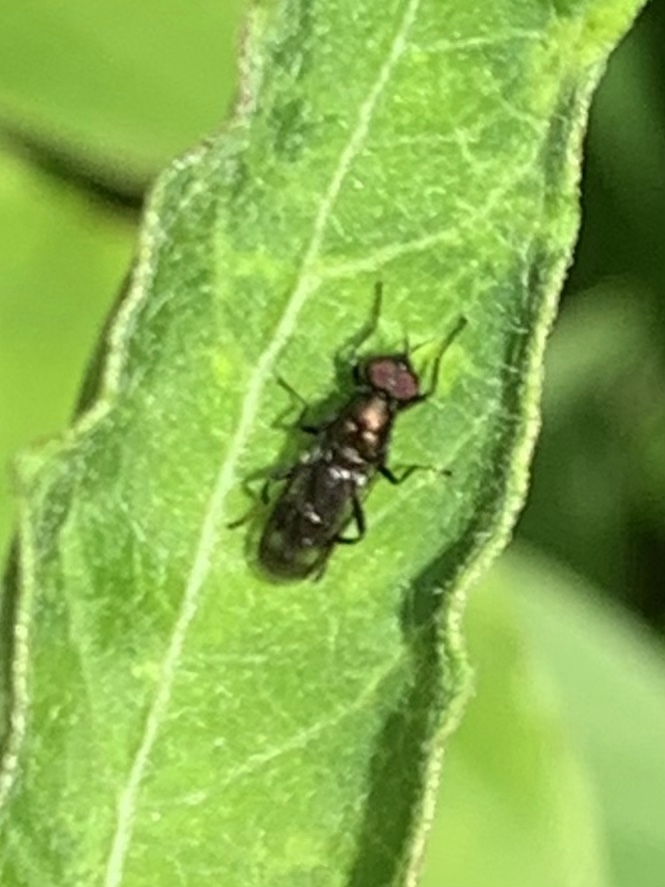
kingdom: Animalia
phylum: Arthropoda
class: Insecta
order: Diptera
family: Stratiomyidae
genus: Myxosargus
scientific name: Myxosargus nigricormis
